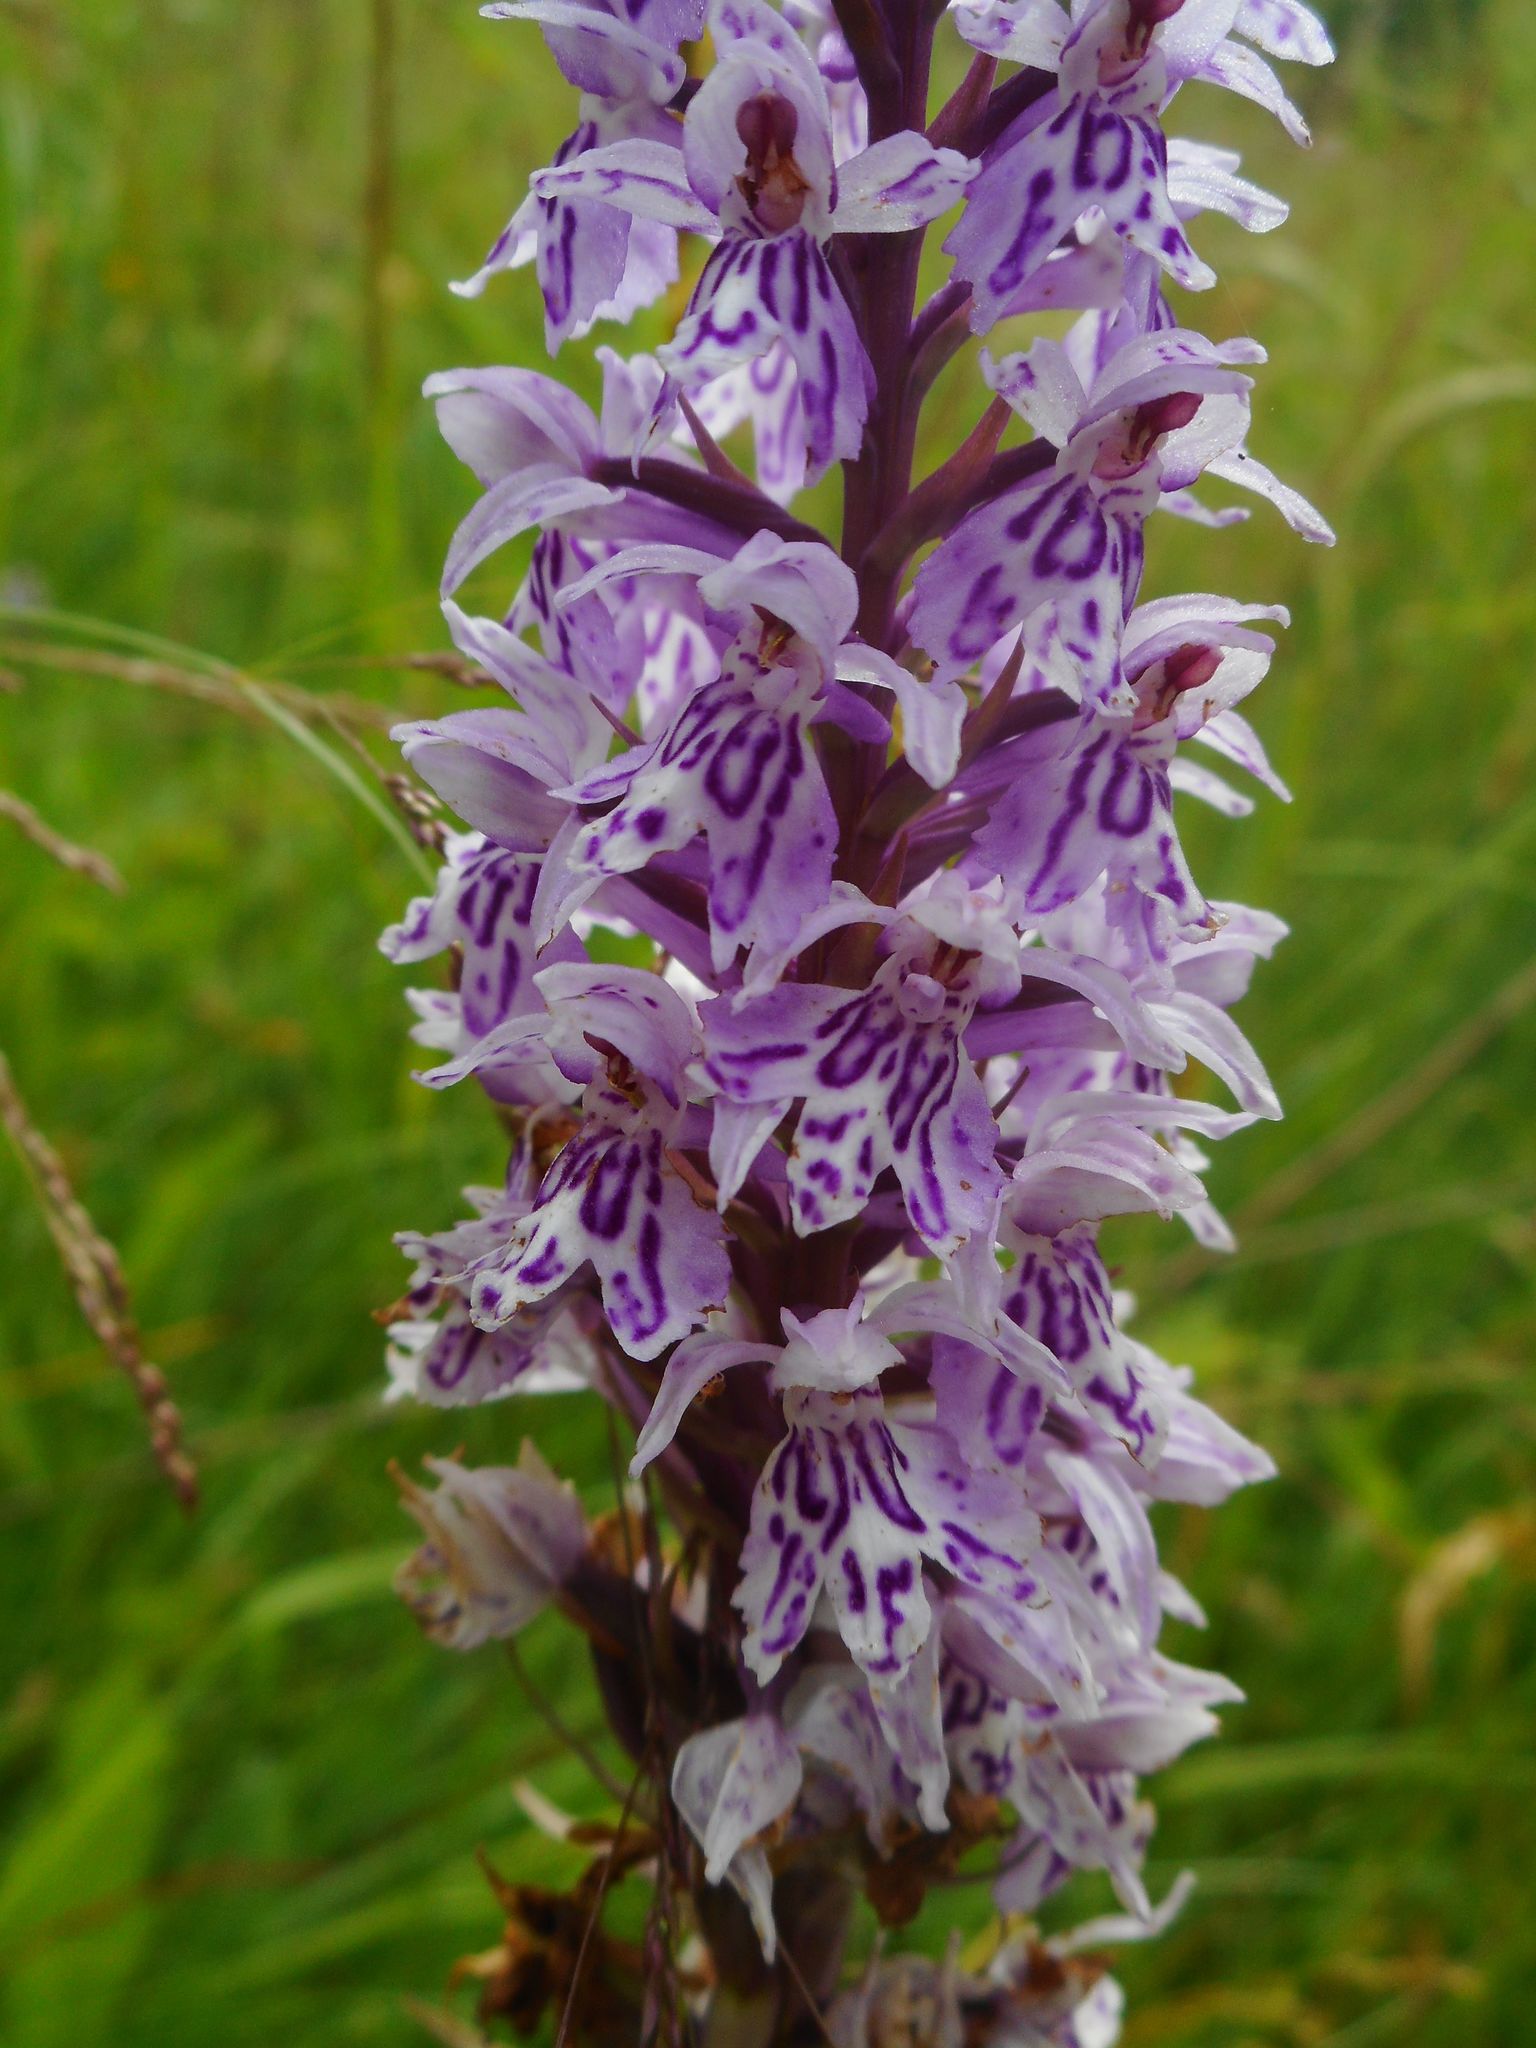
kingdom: Plantae
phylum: Tracheophyta
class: Liliopsida
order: Asparagales
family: Orchidaceae
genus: Dactylorhiza
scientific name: Dactylorhiza maculata
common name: Heath spotted-orchid
